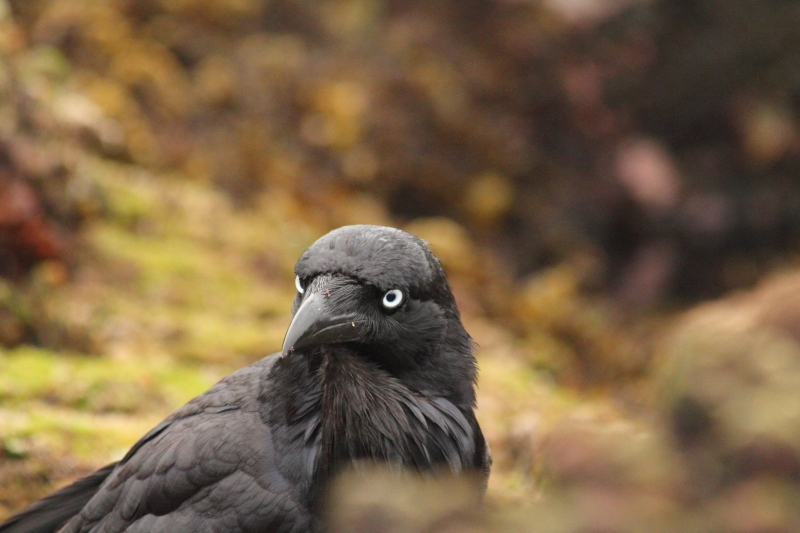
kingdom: Animalia
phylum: Chordata
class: Aves
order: Passeriformes
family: Corvidae
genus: Corvus
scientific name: Corvus coronoides
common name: Australian raven
